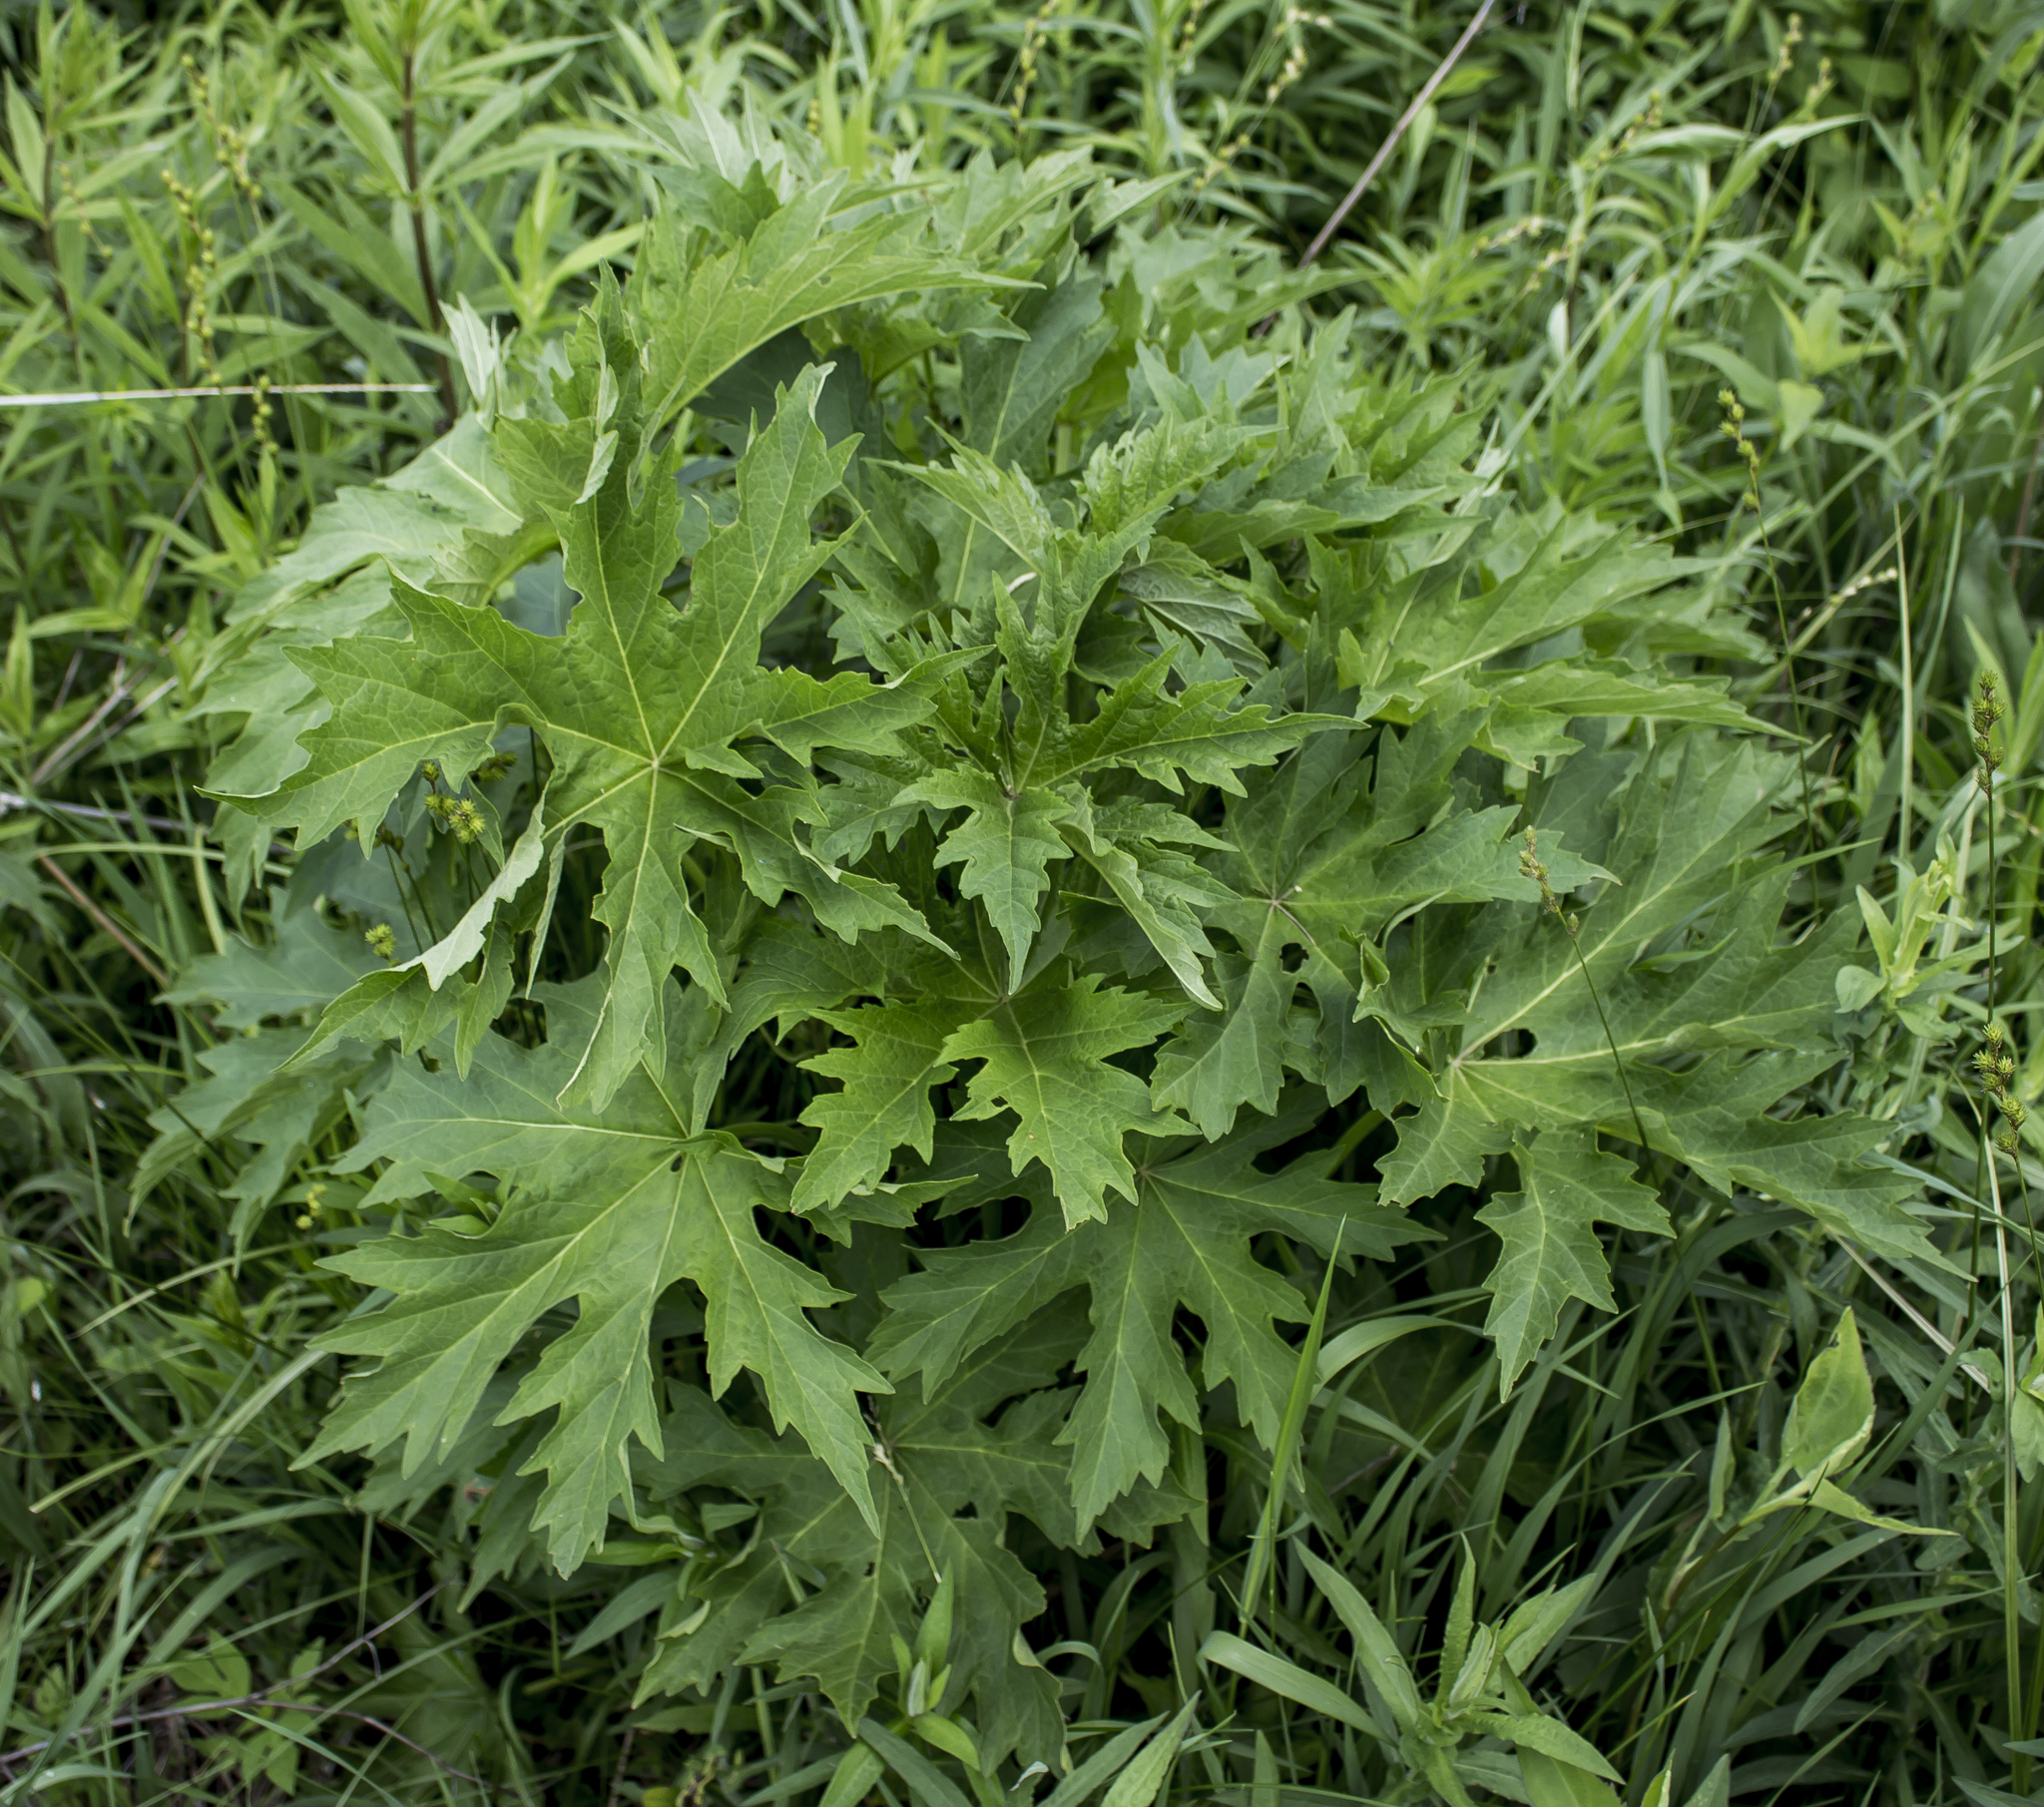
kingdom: Plantae
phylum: Tracheophyta
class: Magnoliopsida
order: Malvales
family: Malvaceae
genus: Napaea
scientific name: Napaea dioica
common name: Glade-mallow
